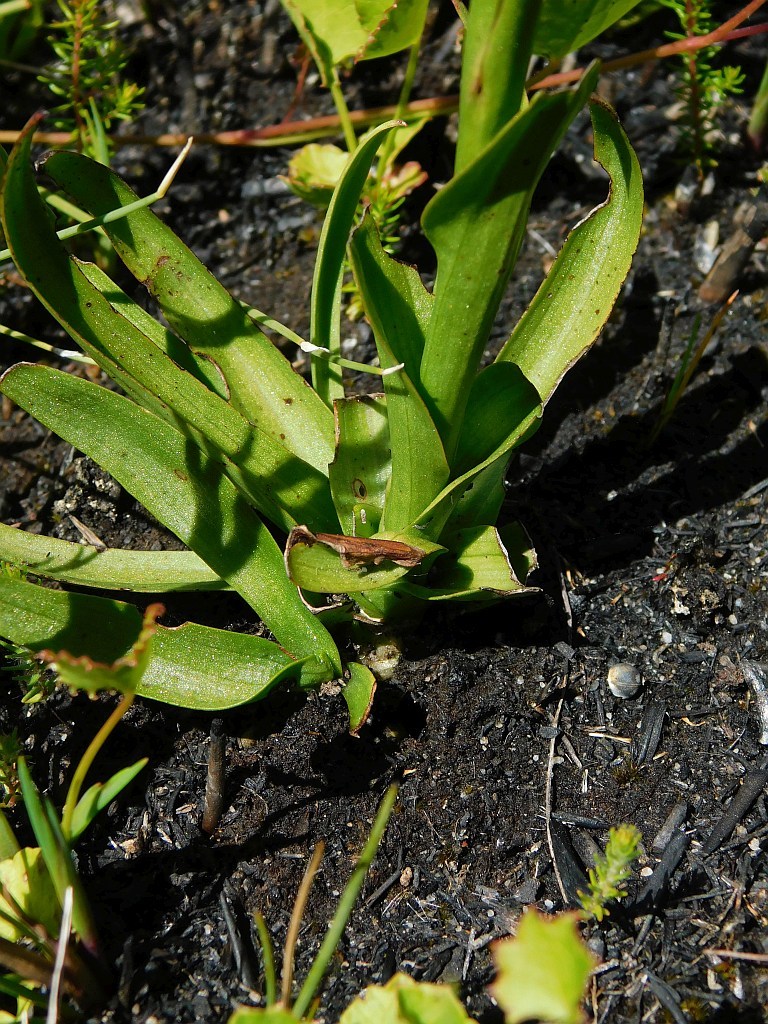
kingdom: Plantae
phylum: Tracheophyta
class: Liliopsida
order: Asparagales
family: Orchidaceae
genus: Disa
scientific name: Disa racemosa
